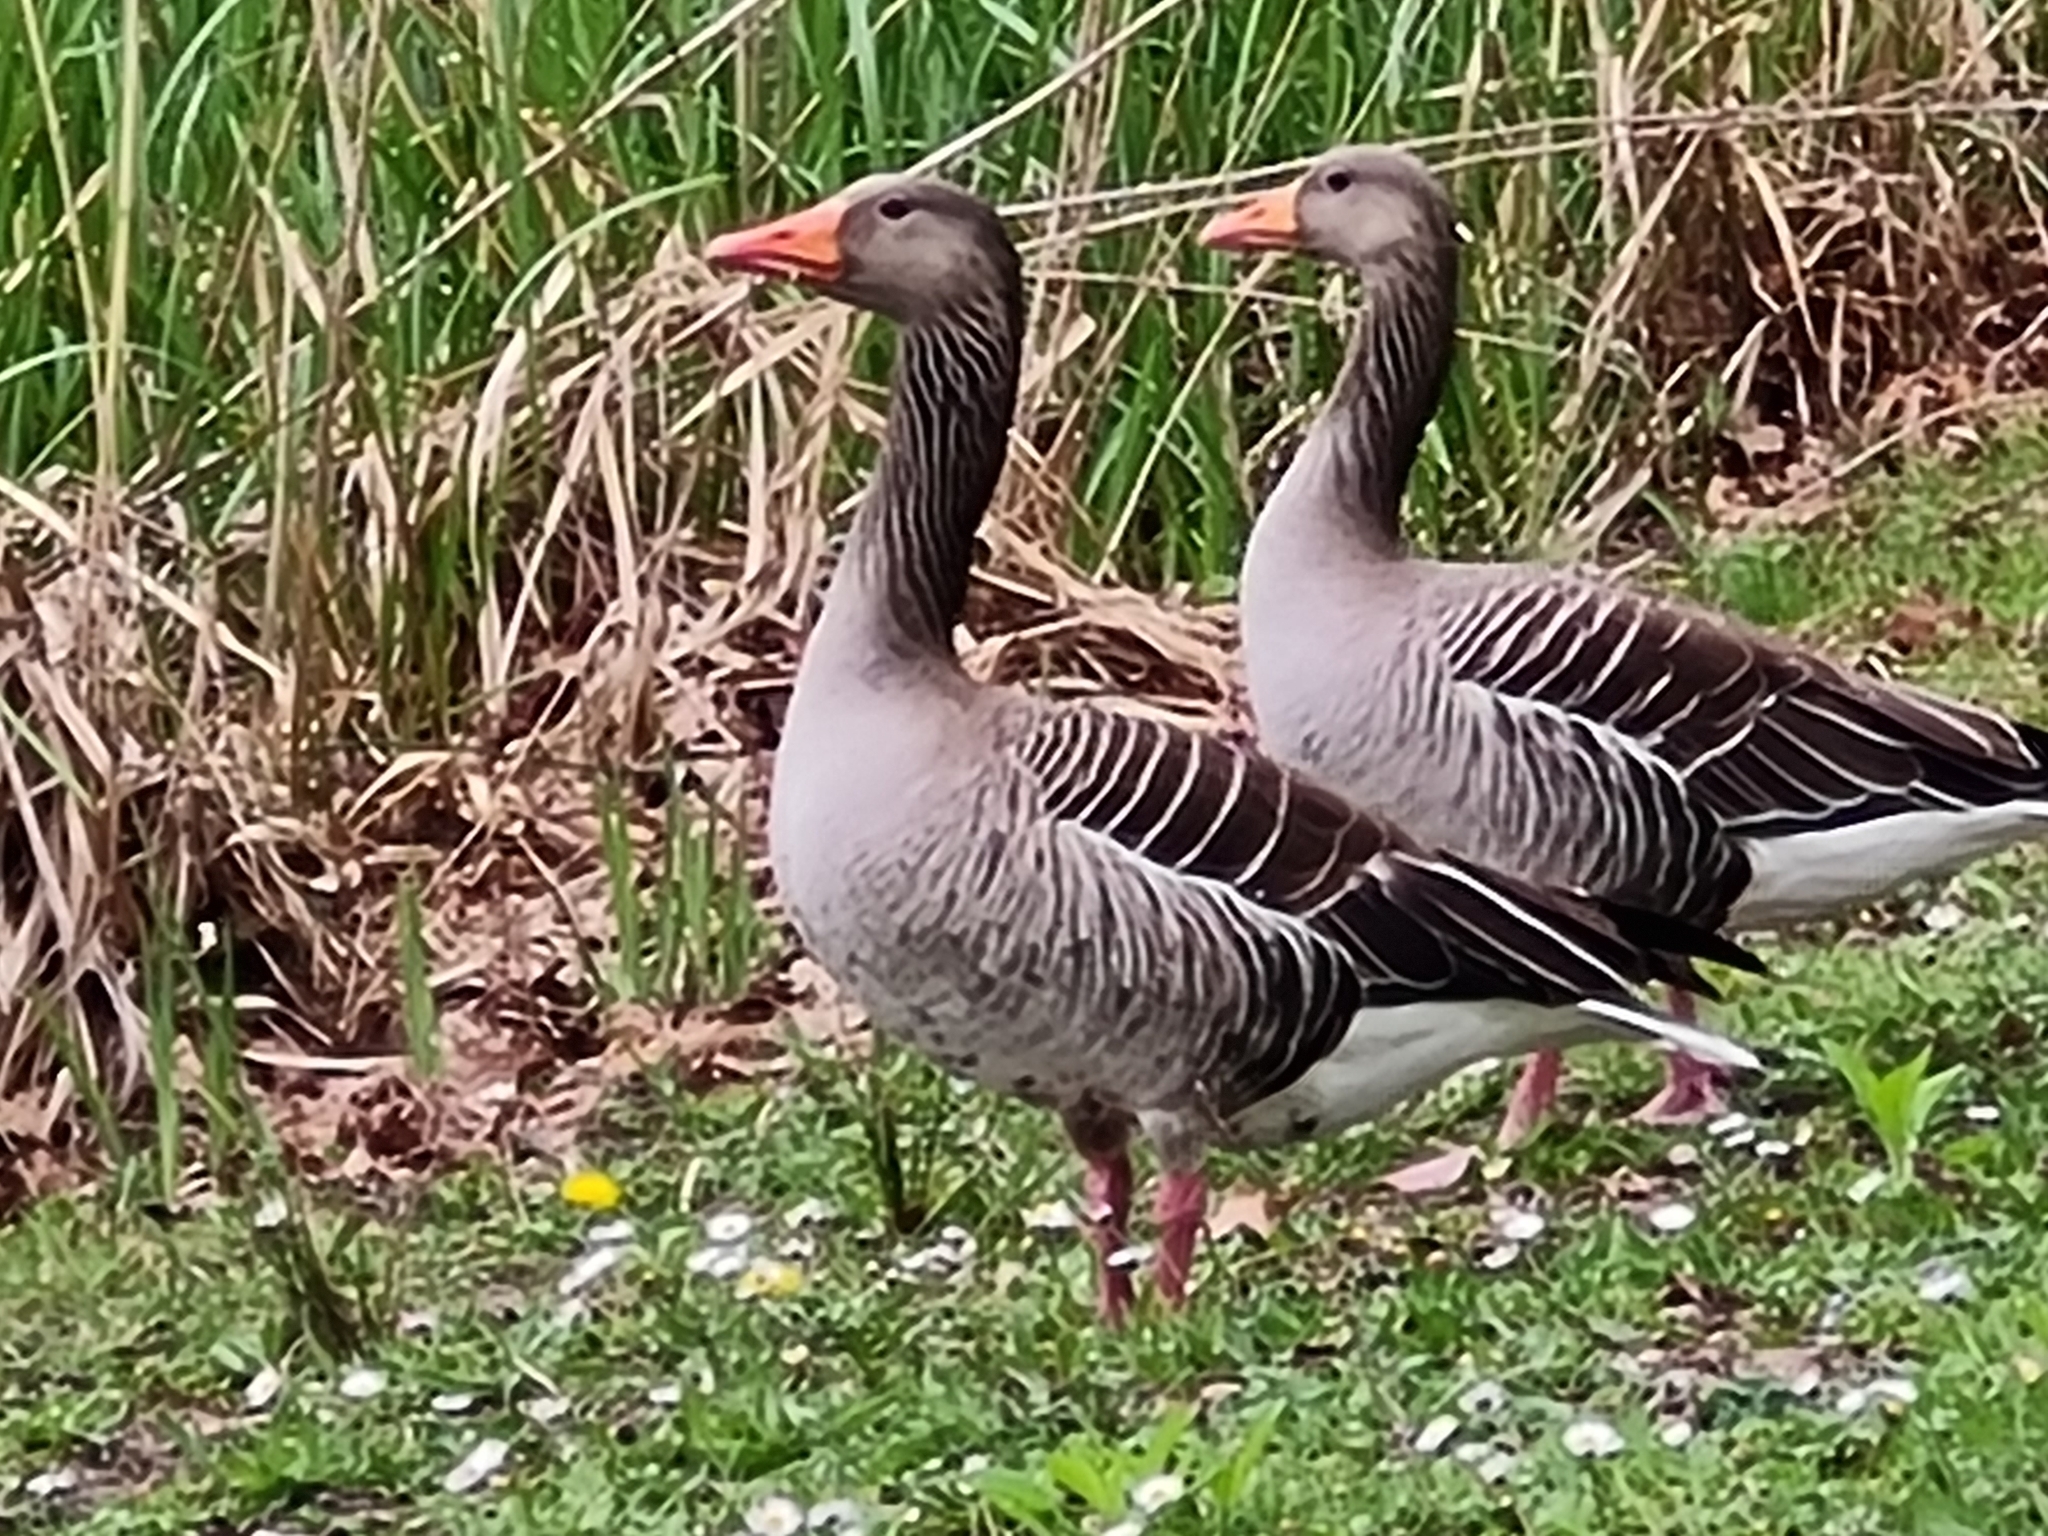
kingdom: Animalia
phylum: Chordata
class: Aves
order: Anseriformes
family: Anatidae
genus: Anser
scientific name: Anser anser
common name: Greylag goose
